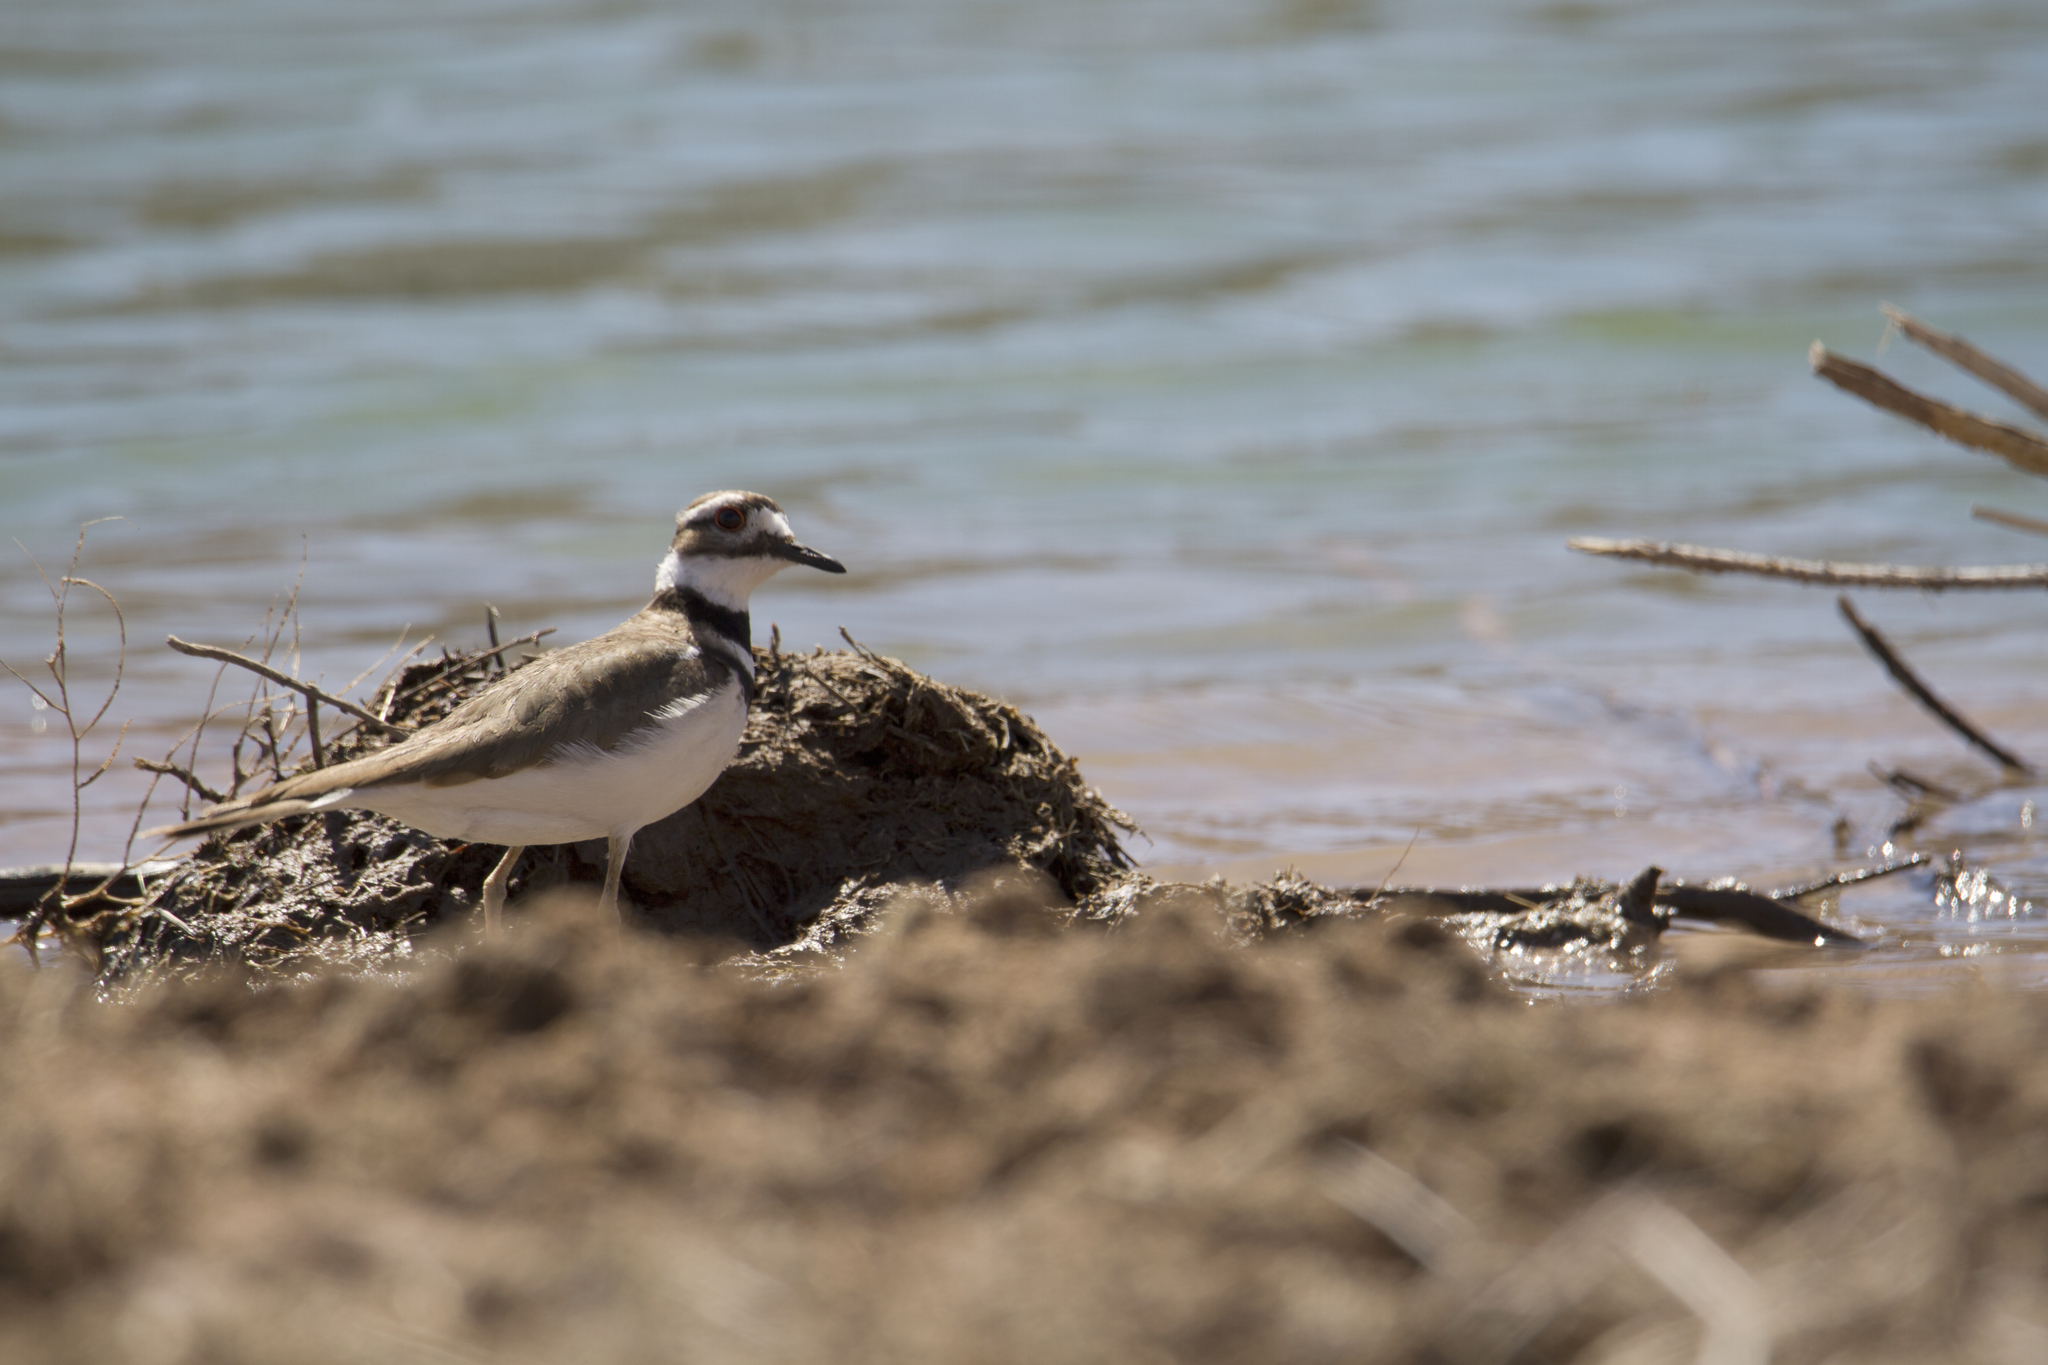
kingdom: Animalia
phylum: Chordata
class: Aves
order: Charadriiformes
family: Charadriidae
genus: Charadrius
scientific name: Charadrius vociferus
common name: Killdeer
